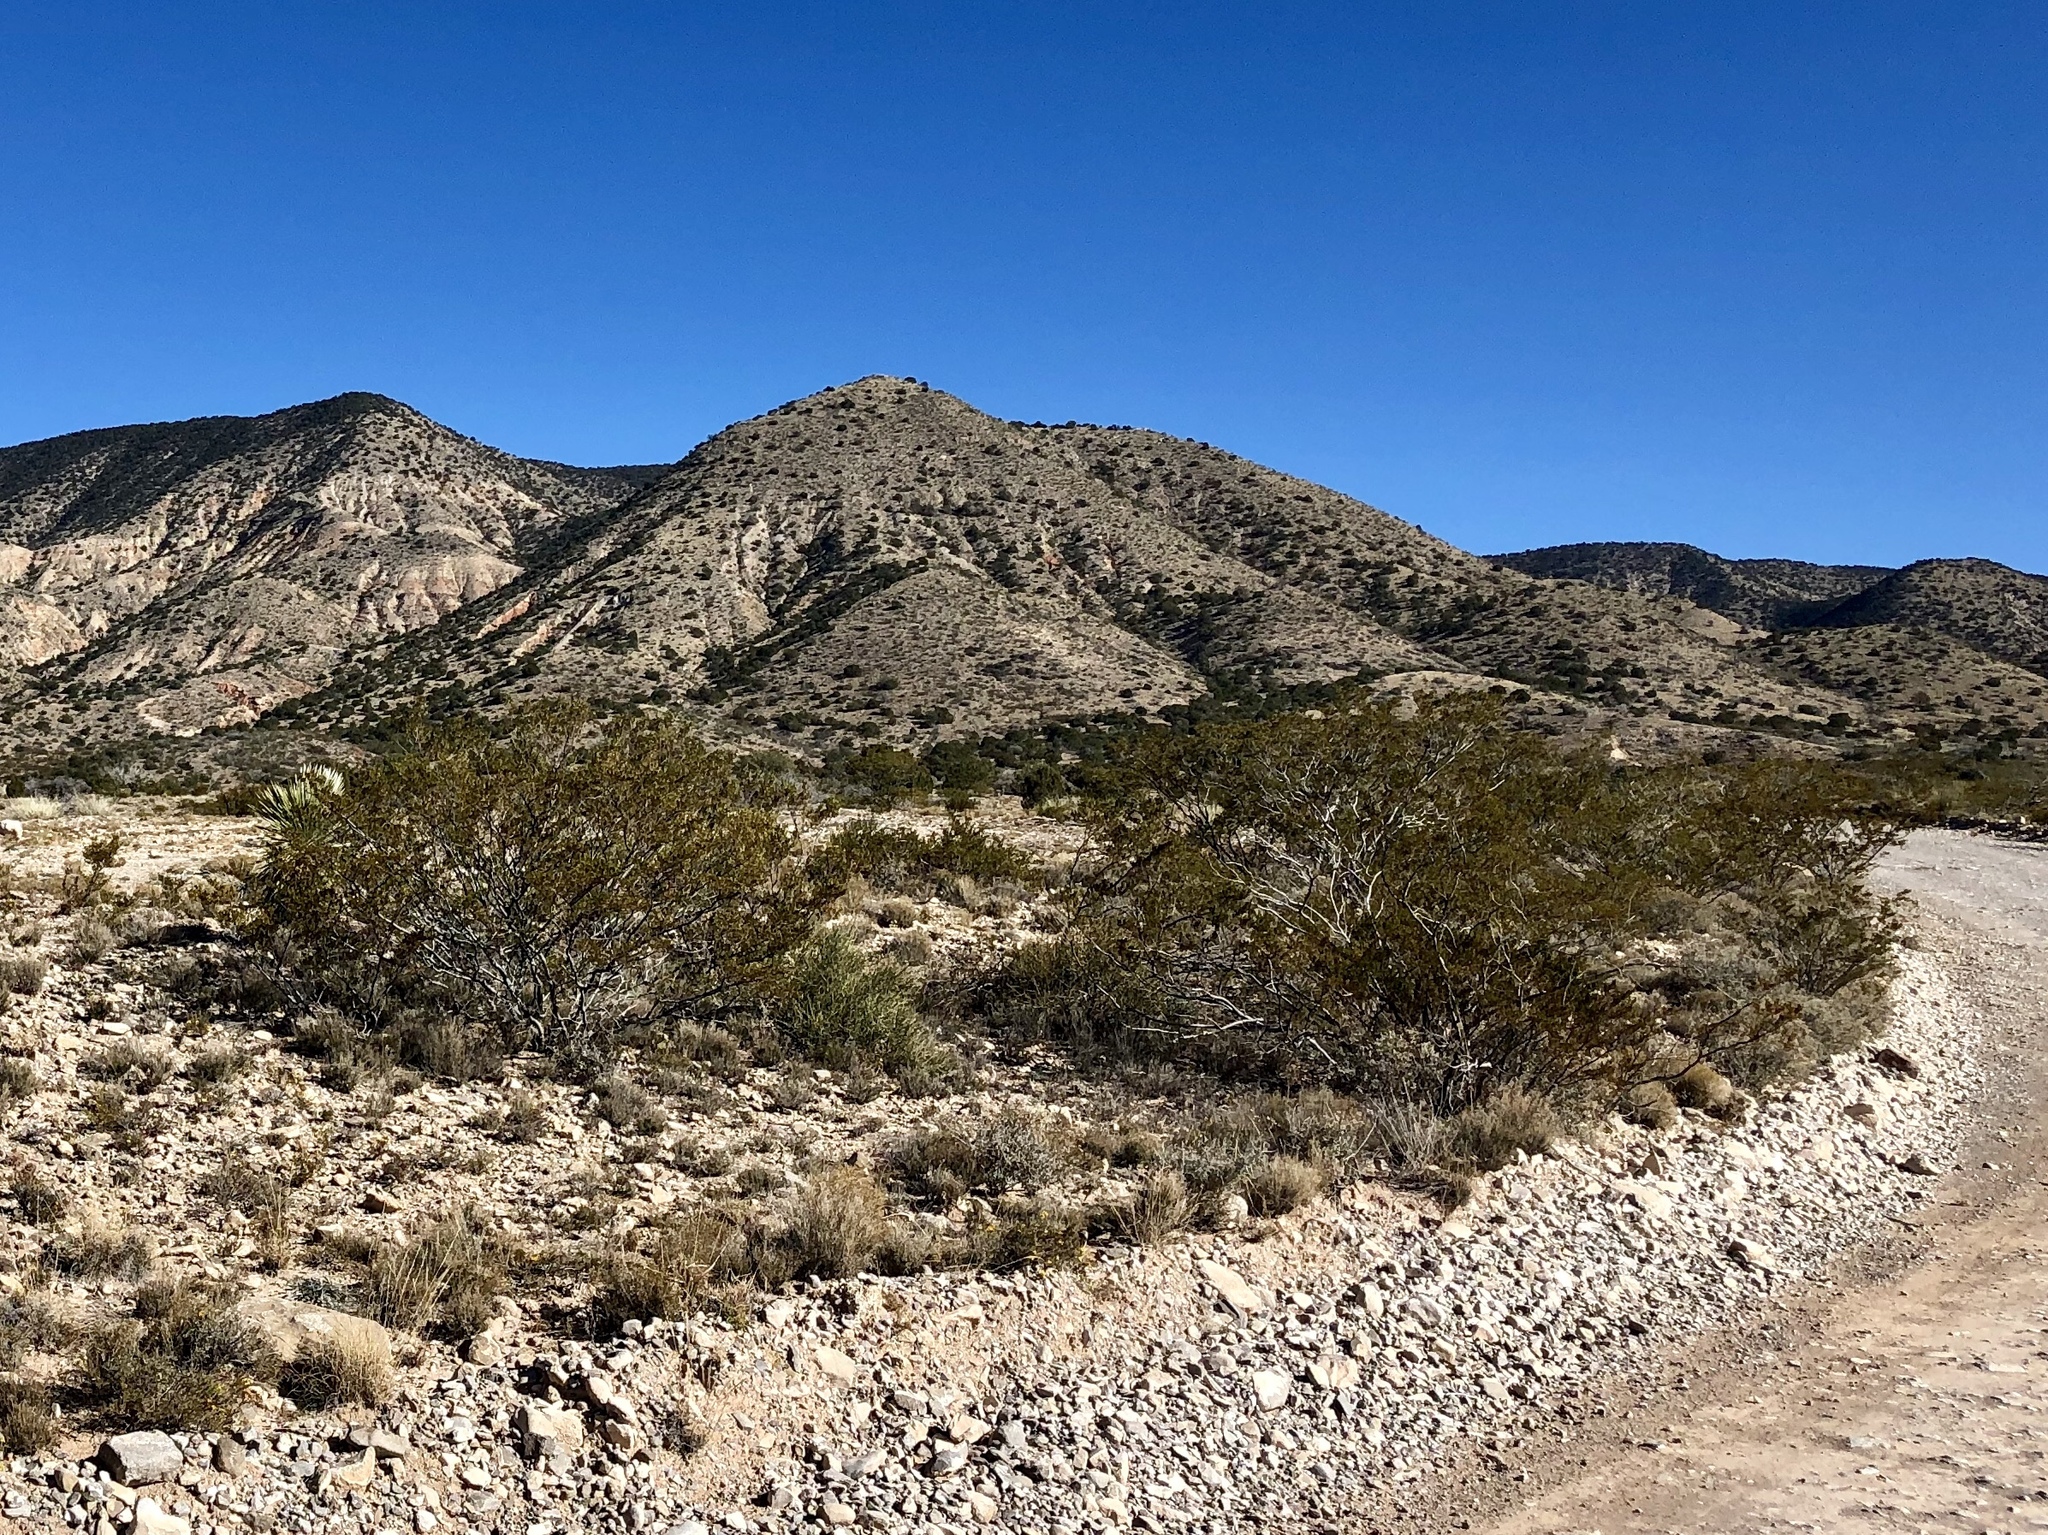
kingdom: Plantae
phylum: Tracheophyta
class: Magnoliopsida
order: Zygophyllales
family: Zygophyllaceae
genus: Larrea
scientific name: Larrea tridentata
